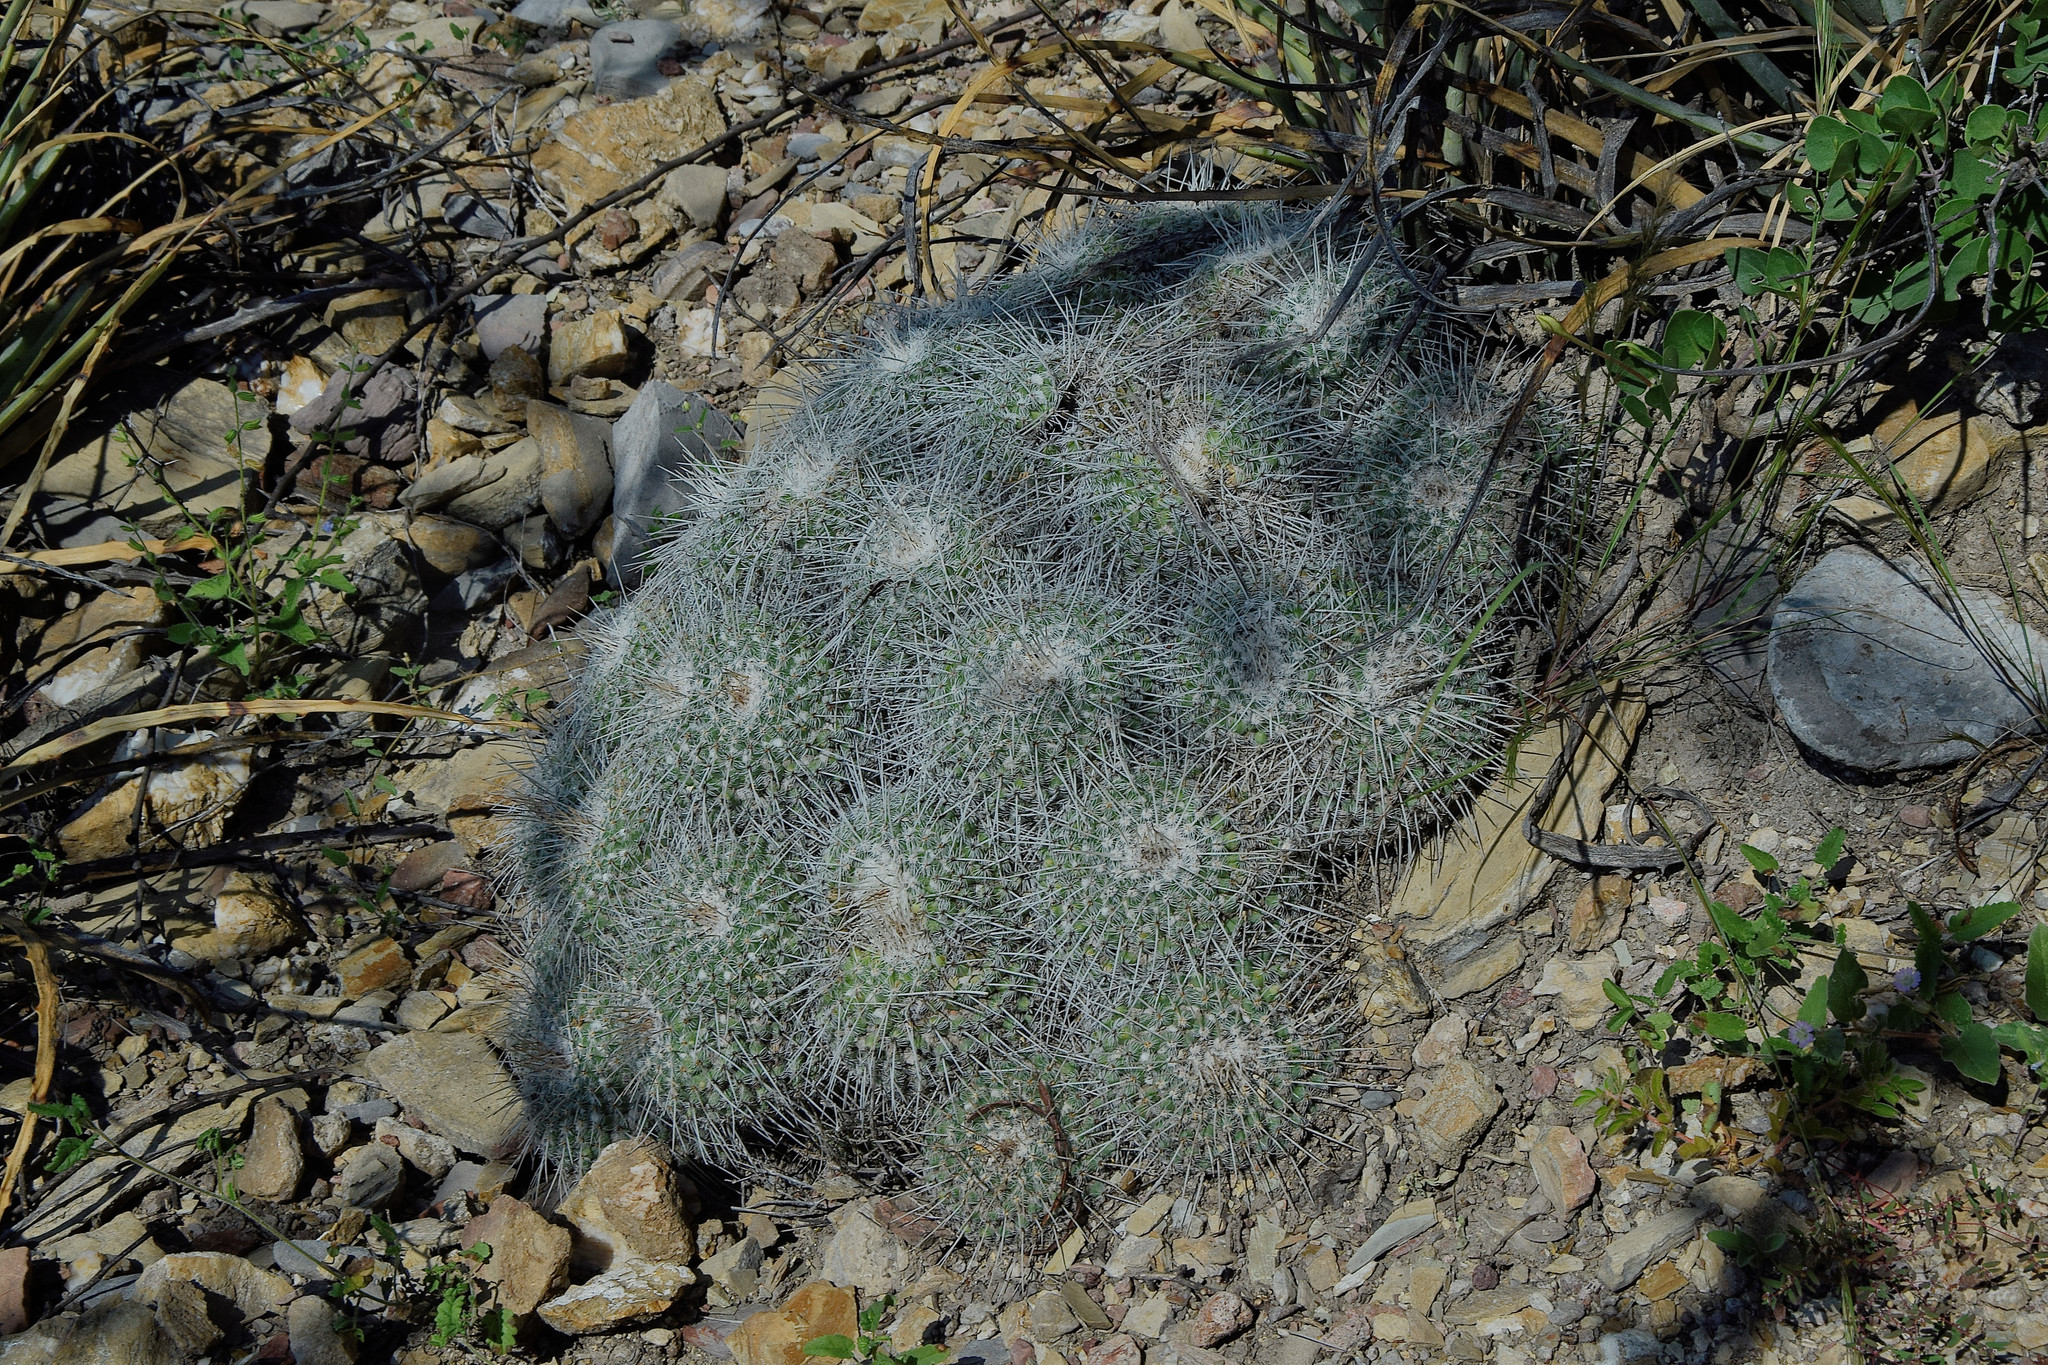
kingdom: Plantae
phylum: Tracheophyta
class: Magnoliopsida
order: Caryophyllales
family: Cactaceae
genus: Mammillaria
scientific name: Mammillaria parkinsonii
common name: Owl's-eye
